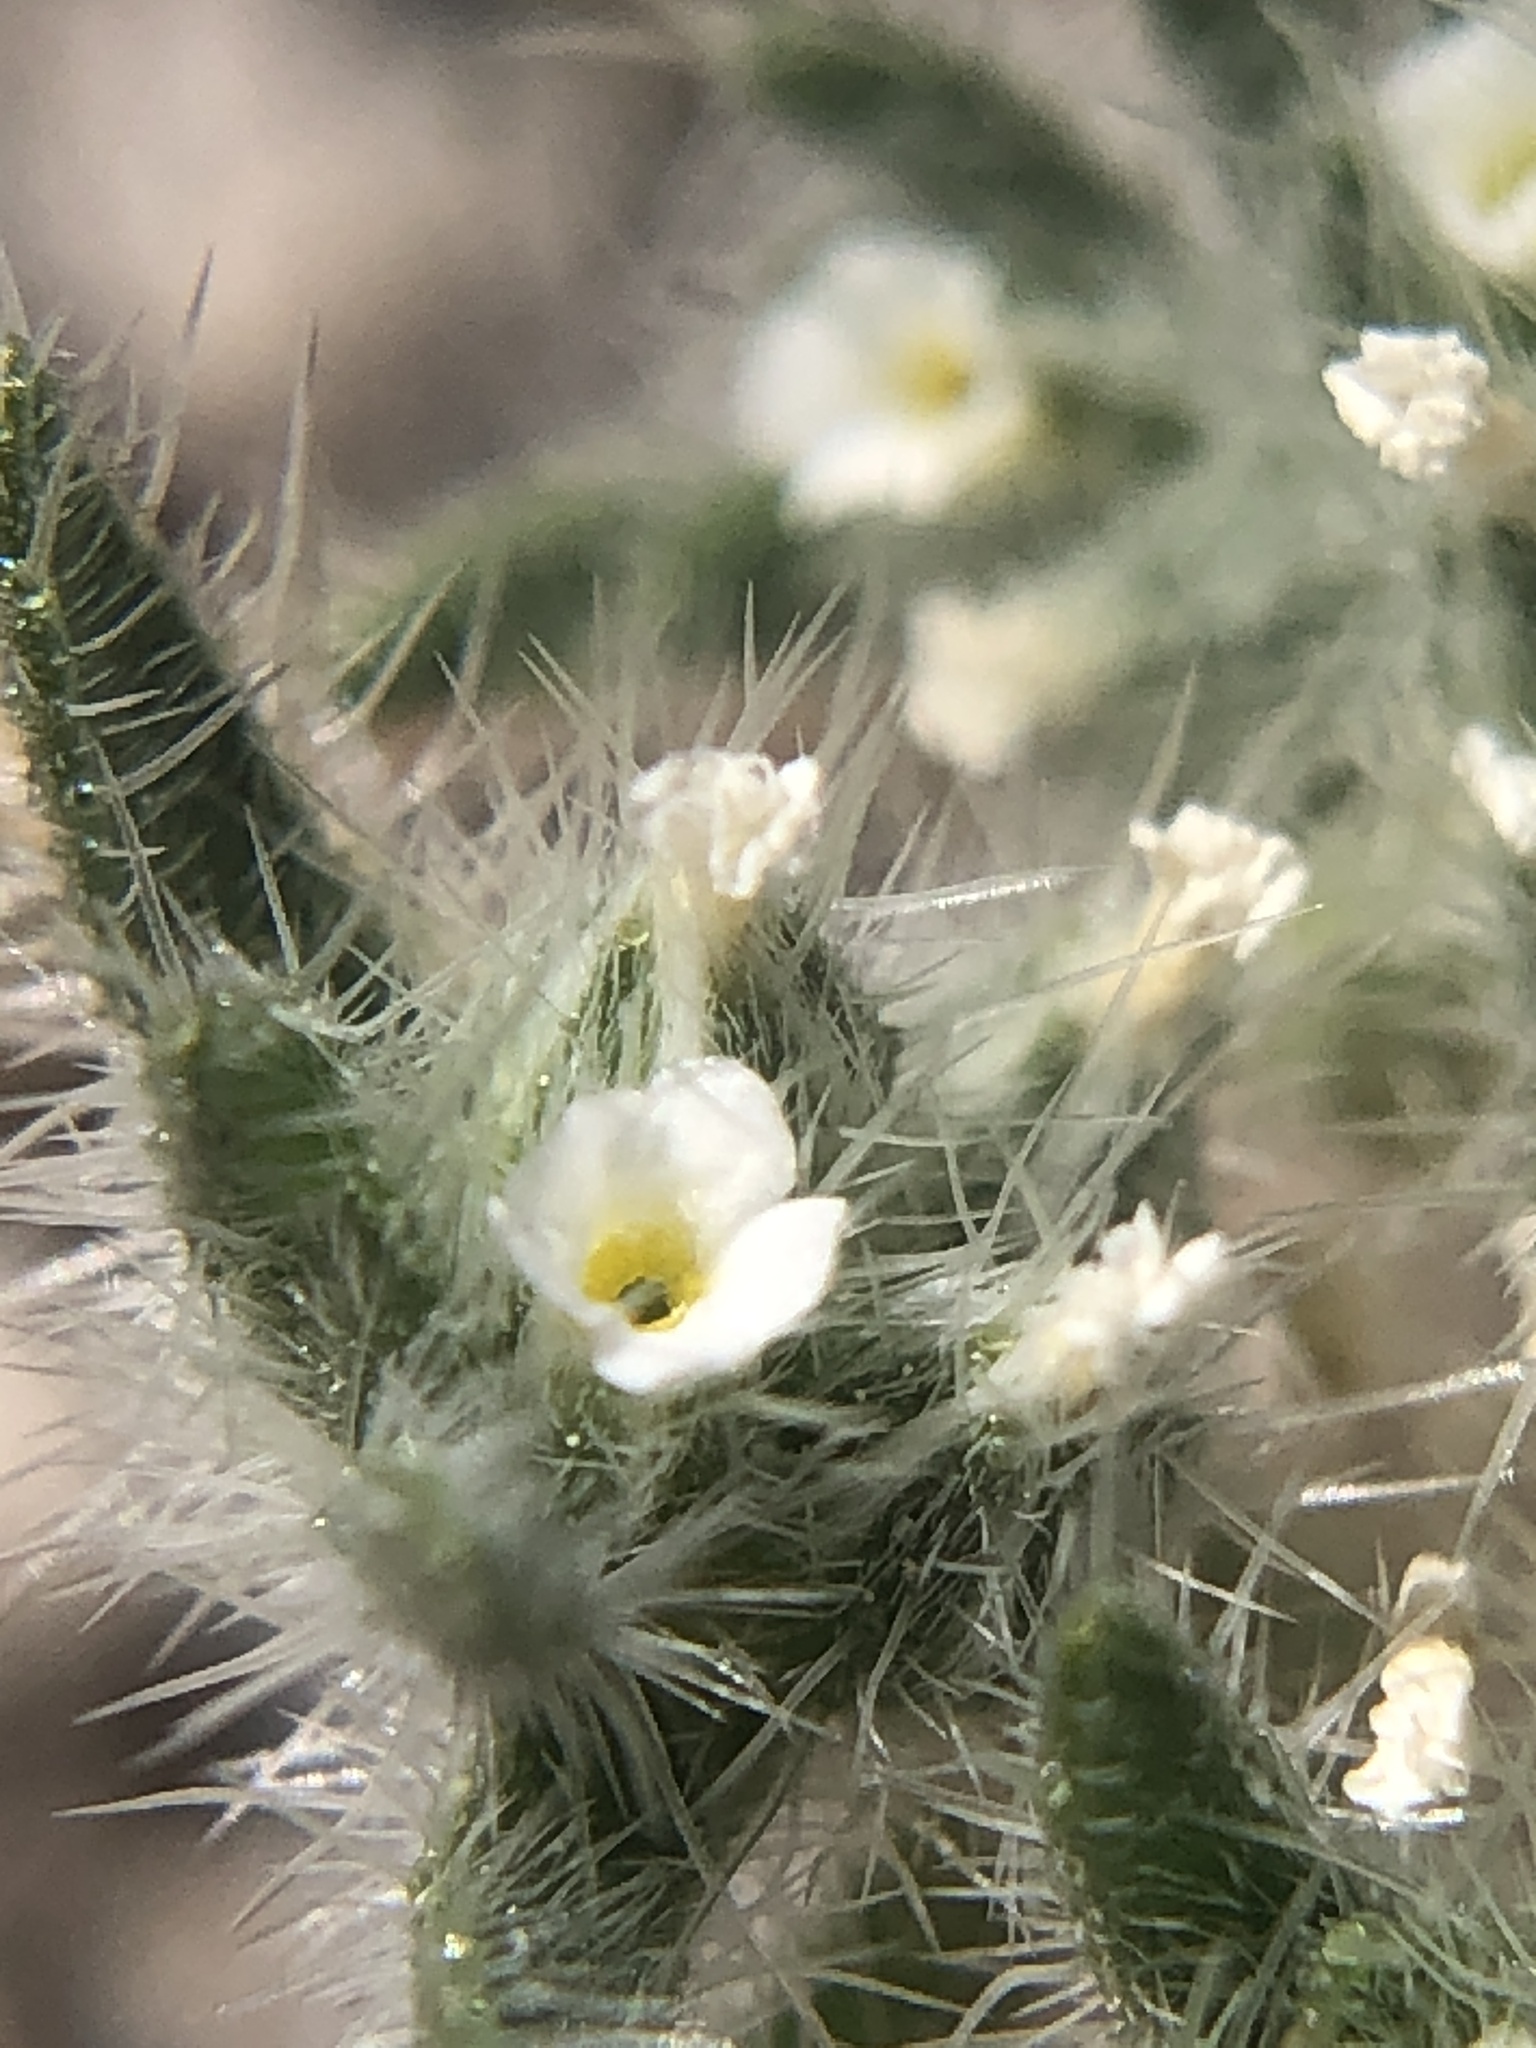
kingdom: Plantae
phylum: Tracheophyta
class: Magnoliopsida
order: Boraginales
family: Boraginaceae
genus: Greeneocharis
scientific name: Greeneocharis circumscissa
